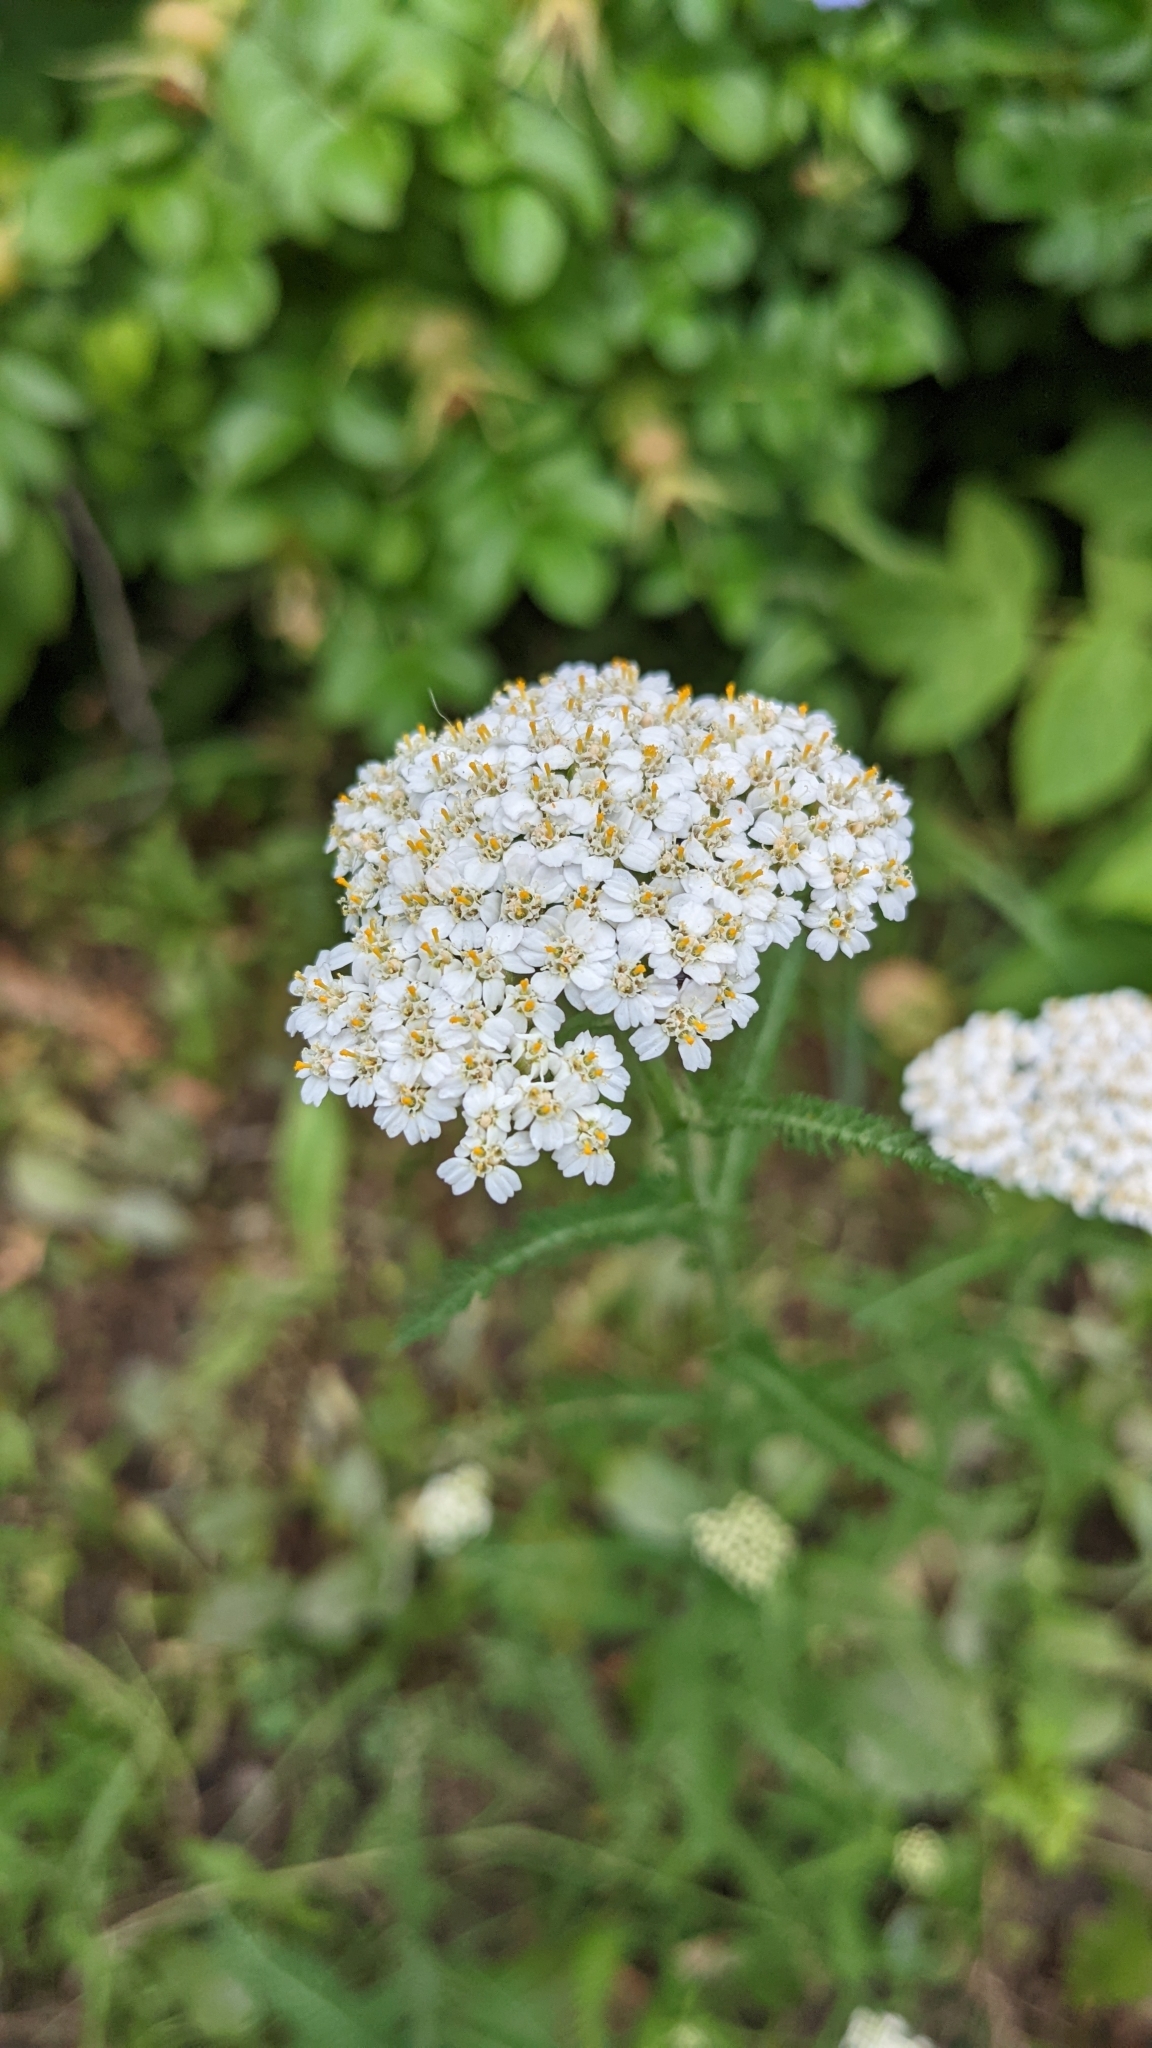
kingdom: Plantae
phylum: Tracheophyta
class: Magnoliopsida
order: Asterales
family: Asteraceae
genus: Achillea
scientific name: Achillea millefolium
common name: Yarrow
